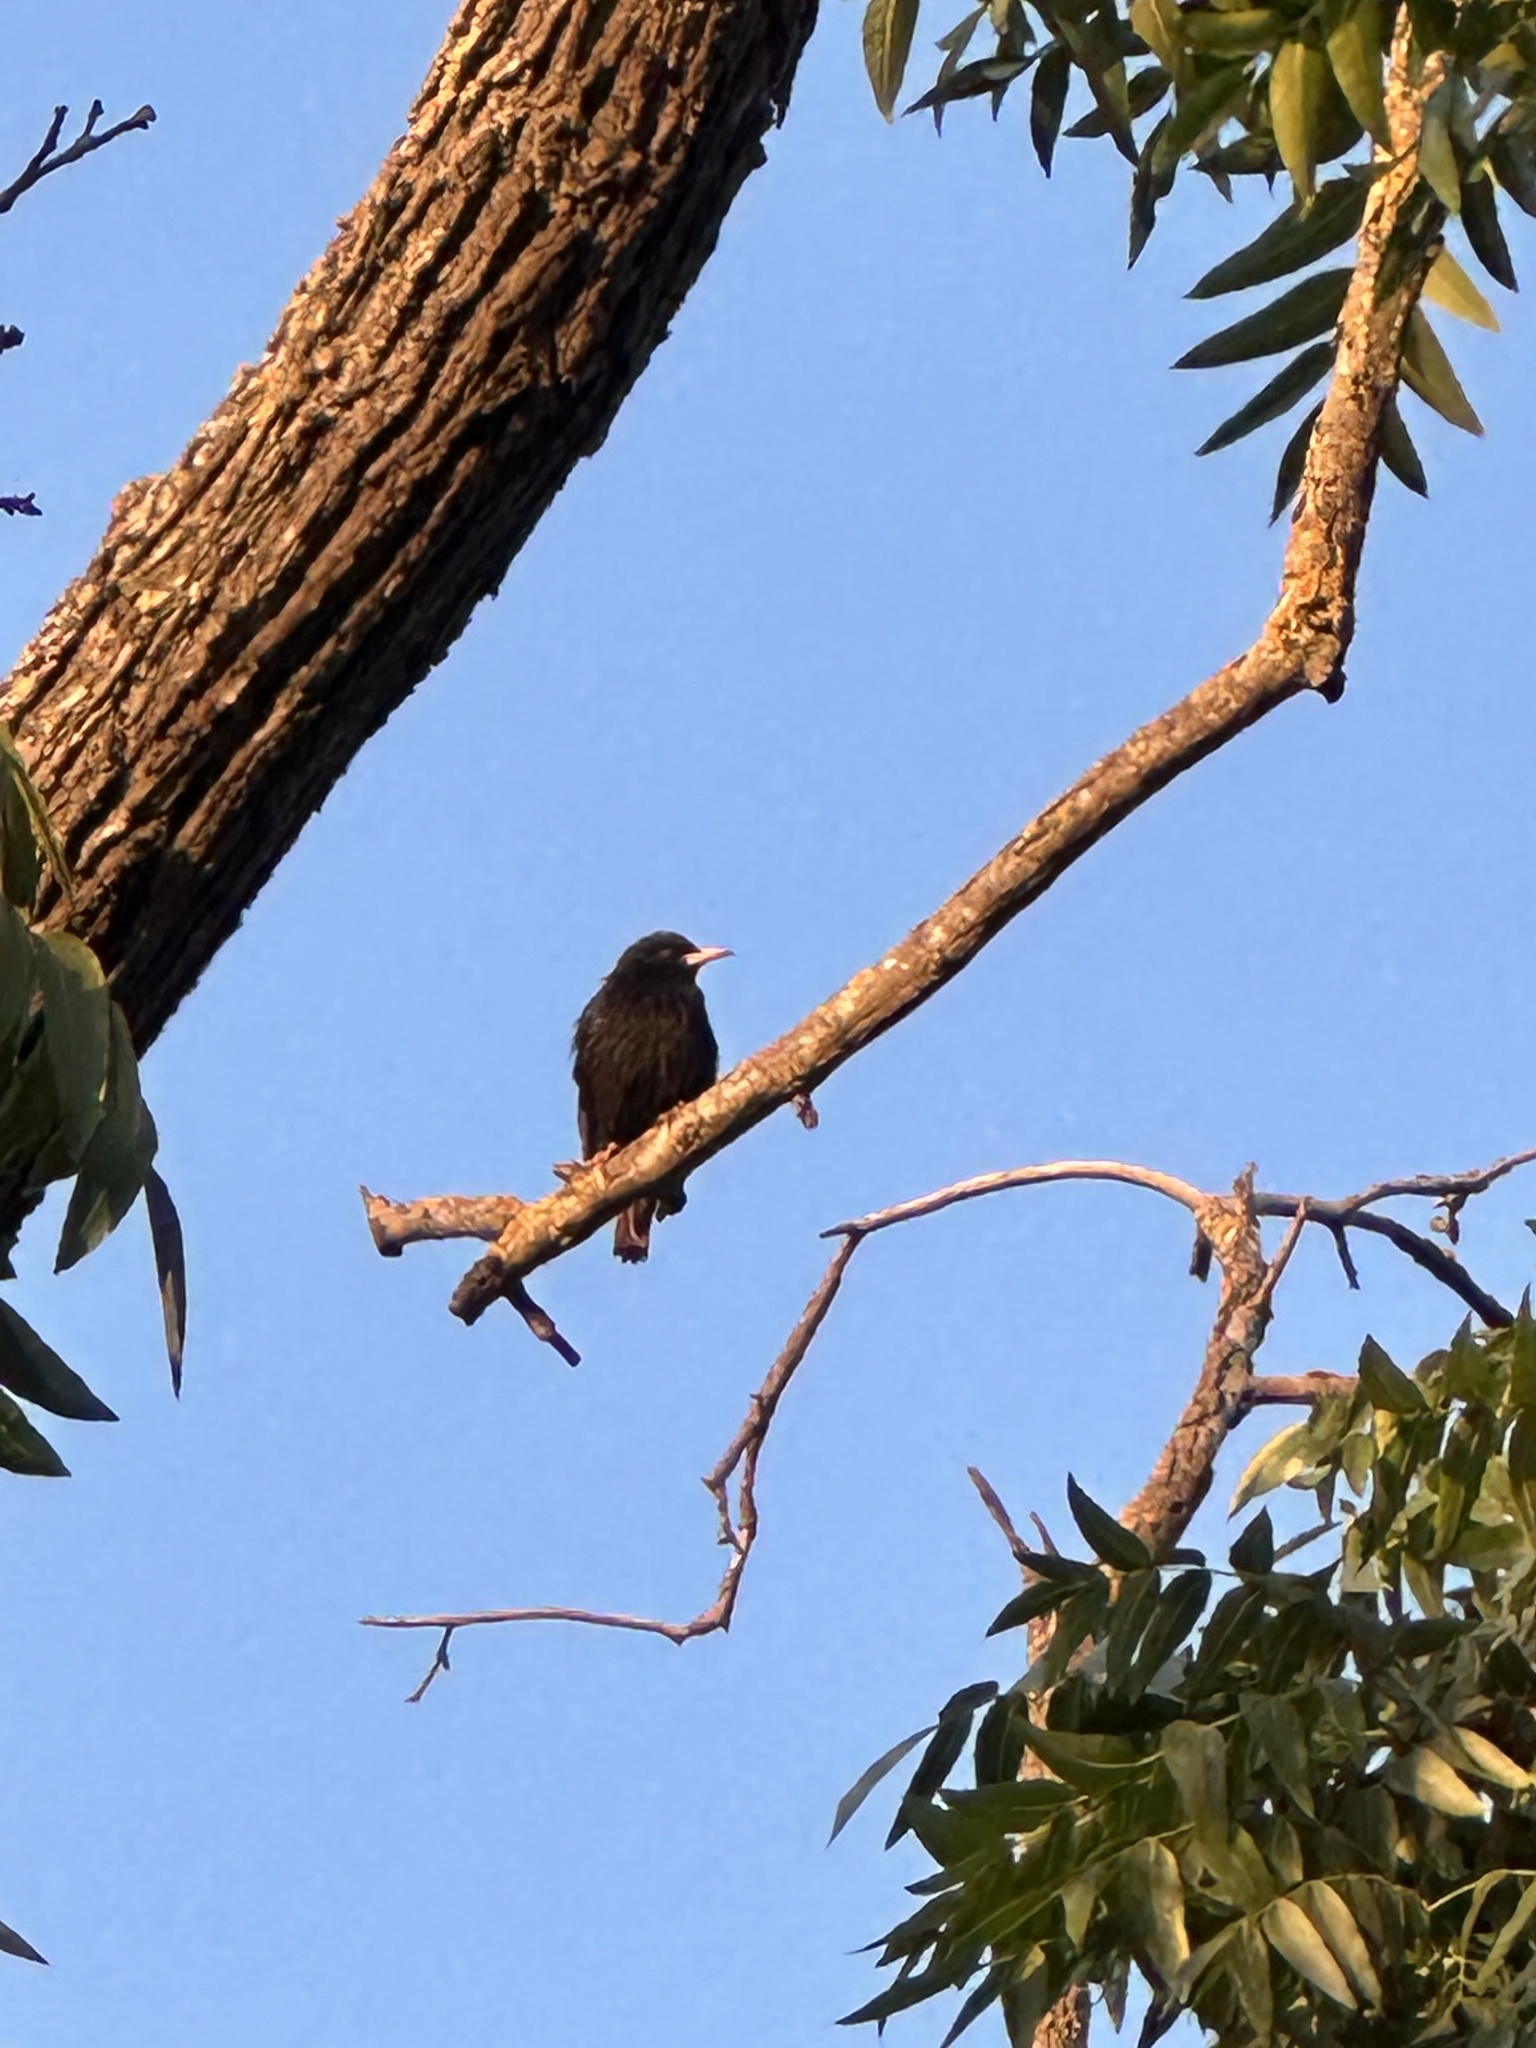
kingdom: Animalia
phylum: Chordata
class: Aves
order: Passeriformes
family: Sturnidae
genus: Sturnus
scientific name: Sturnus vulgaris
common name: Common starling
